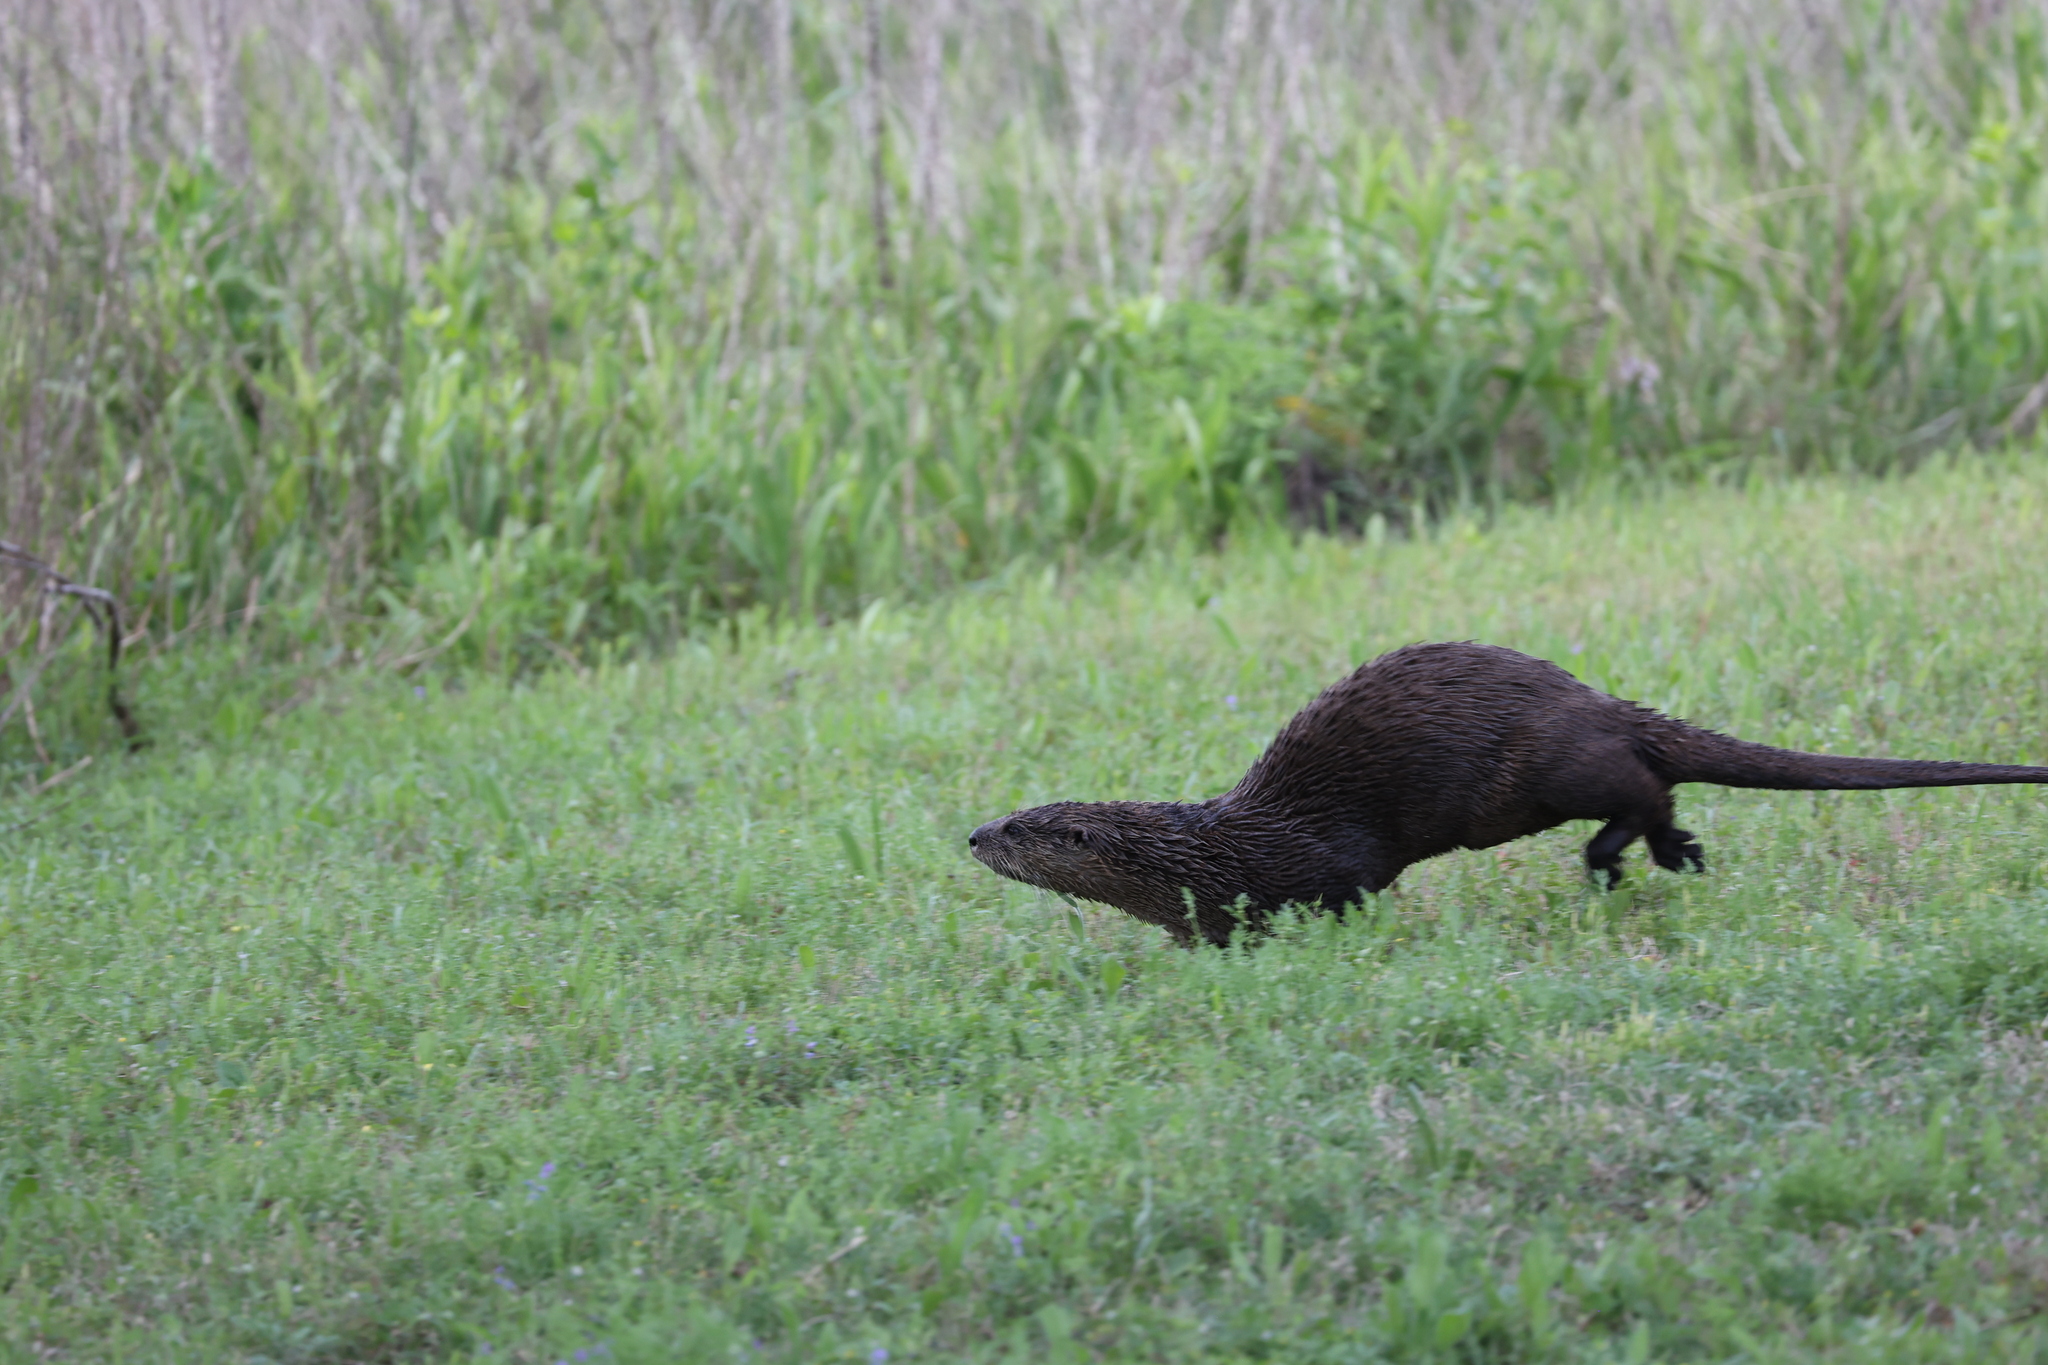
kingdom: Animalia
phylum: Chordata
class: Mammalia
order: Carnivora
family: Mustelidae
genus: Lontra
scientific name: Lontra canadensis
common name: North american river otter
